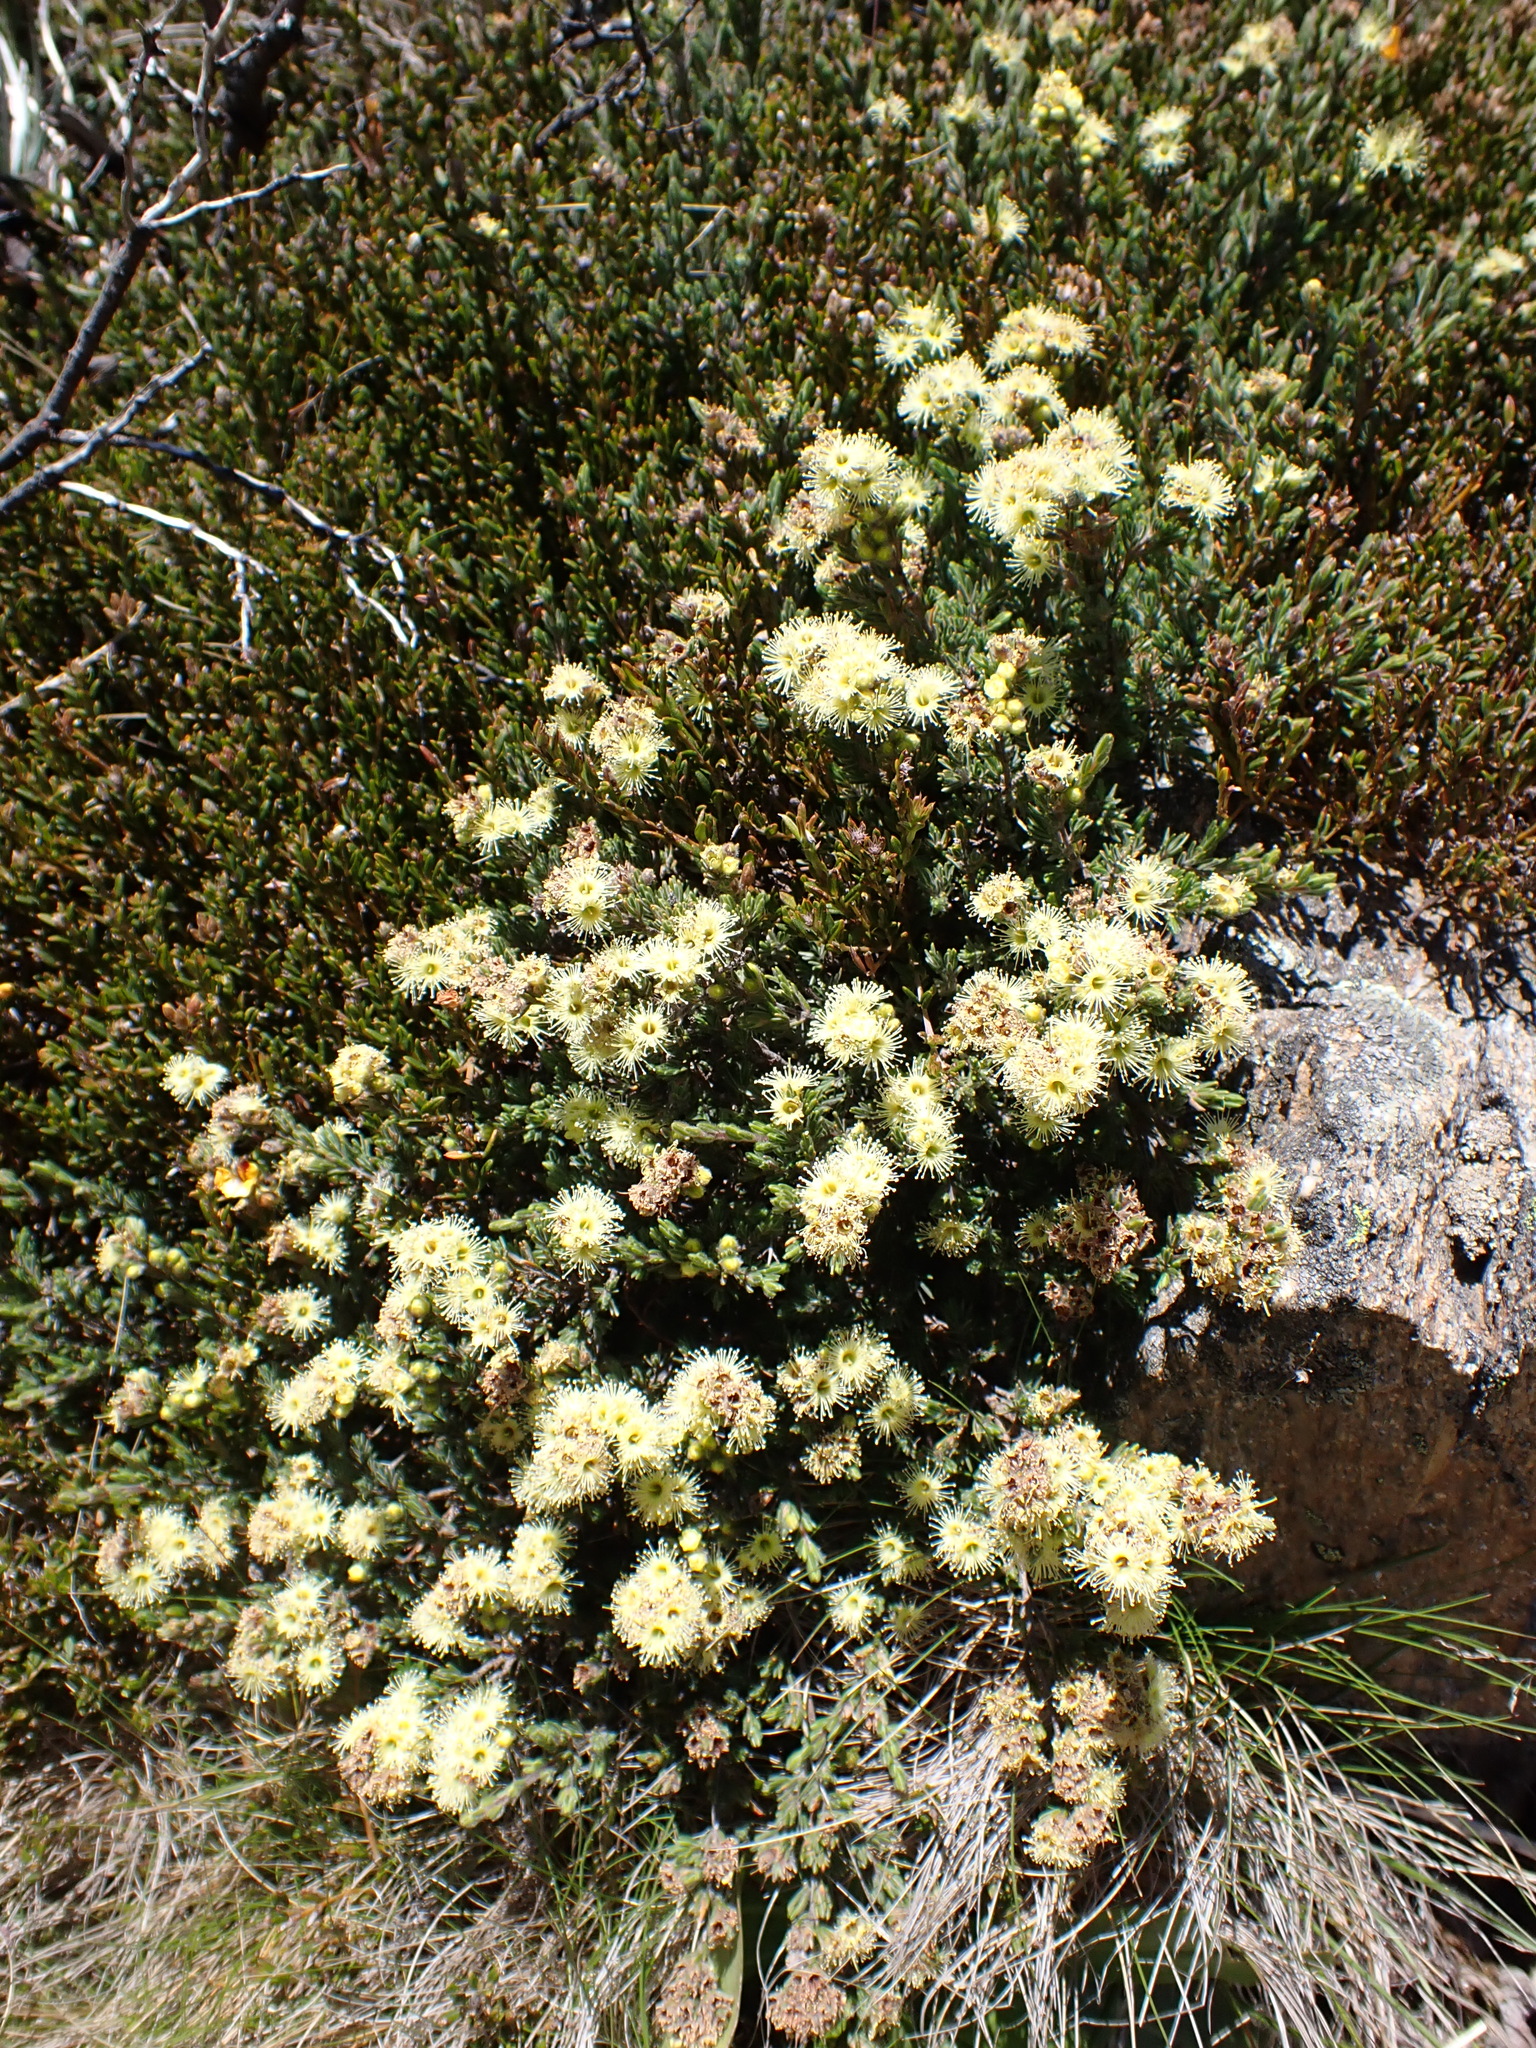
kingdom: Plantae
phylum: Tracheophyta
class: Magnoliopsida
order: Myrtales
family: Myrtaceae
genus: Kunzea
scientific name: Kunzea muelleri
